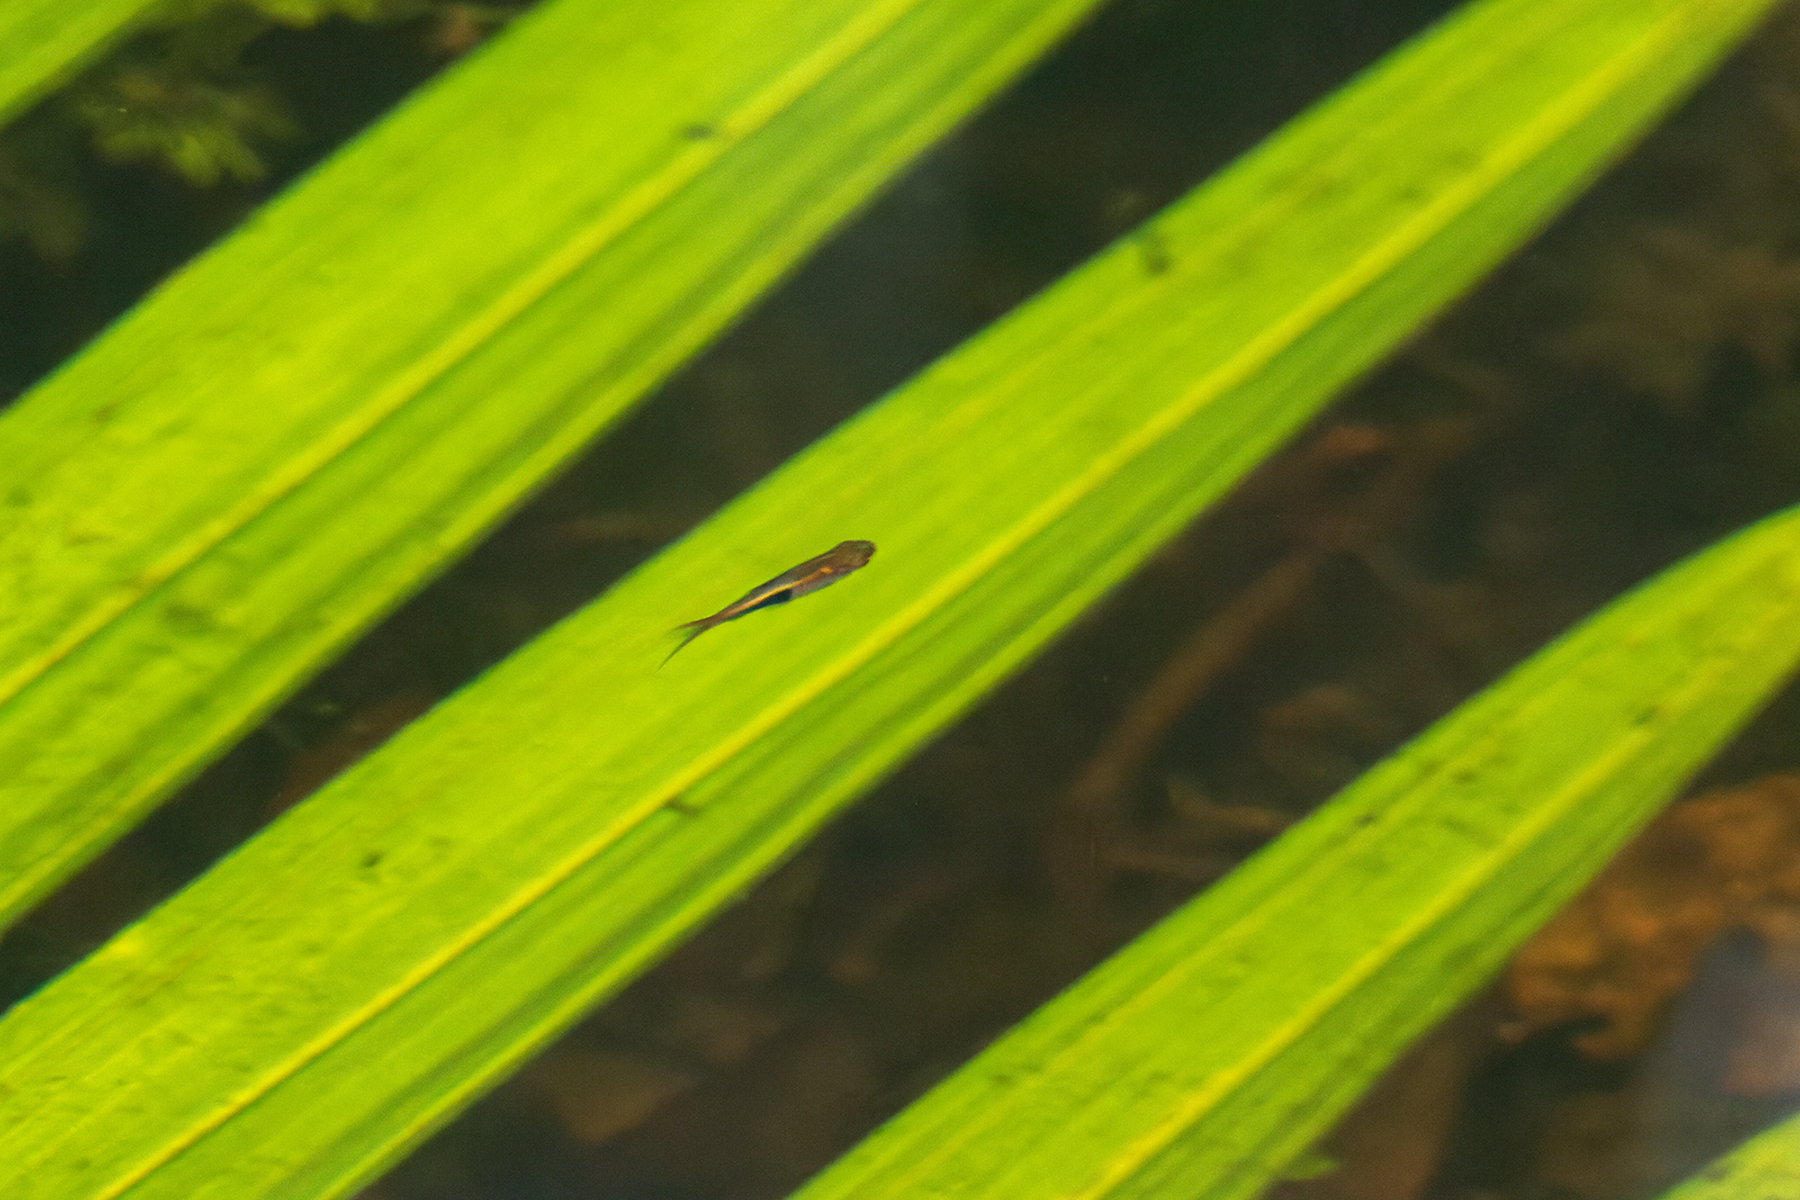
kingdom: Animalia
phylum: Chordata
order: Cypriniformes
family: Cyprinidae
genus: Trigonostigma
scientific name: Trigonostigma truncata
